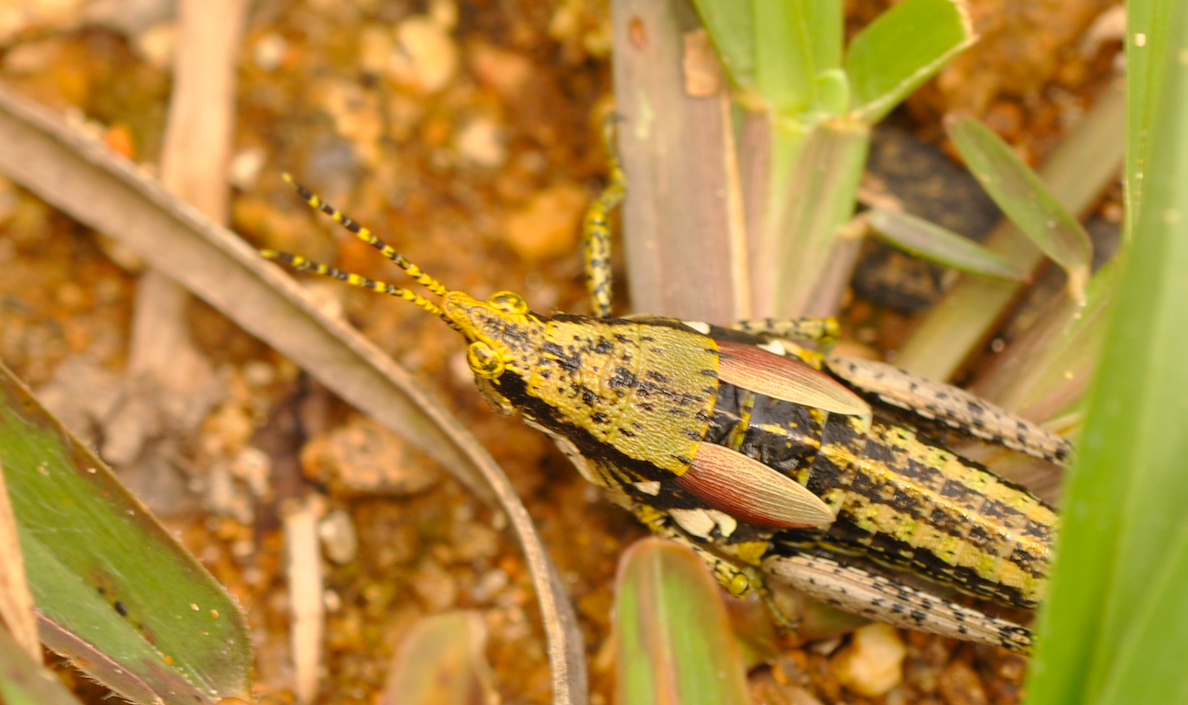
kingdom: Animalia
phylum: Arthropoda
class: Insecta
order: Orthoptera
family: Pyrgomorphidae
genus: Rubellia
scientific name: Rubellia nigro-signata
